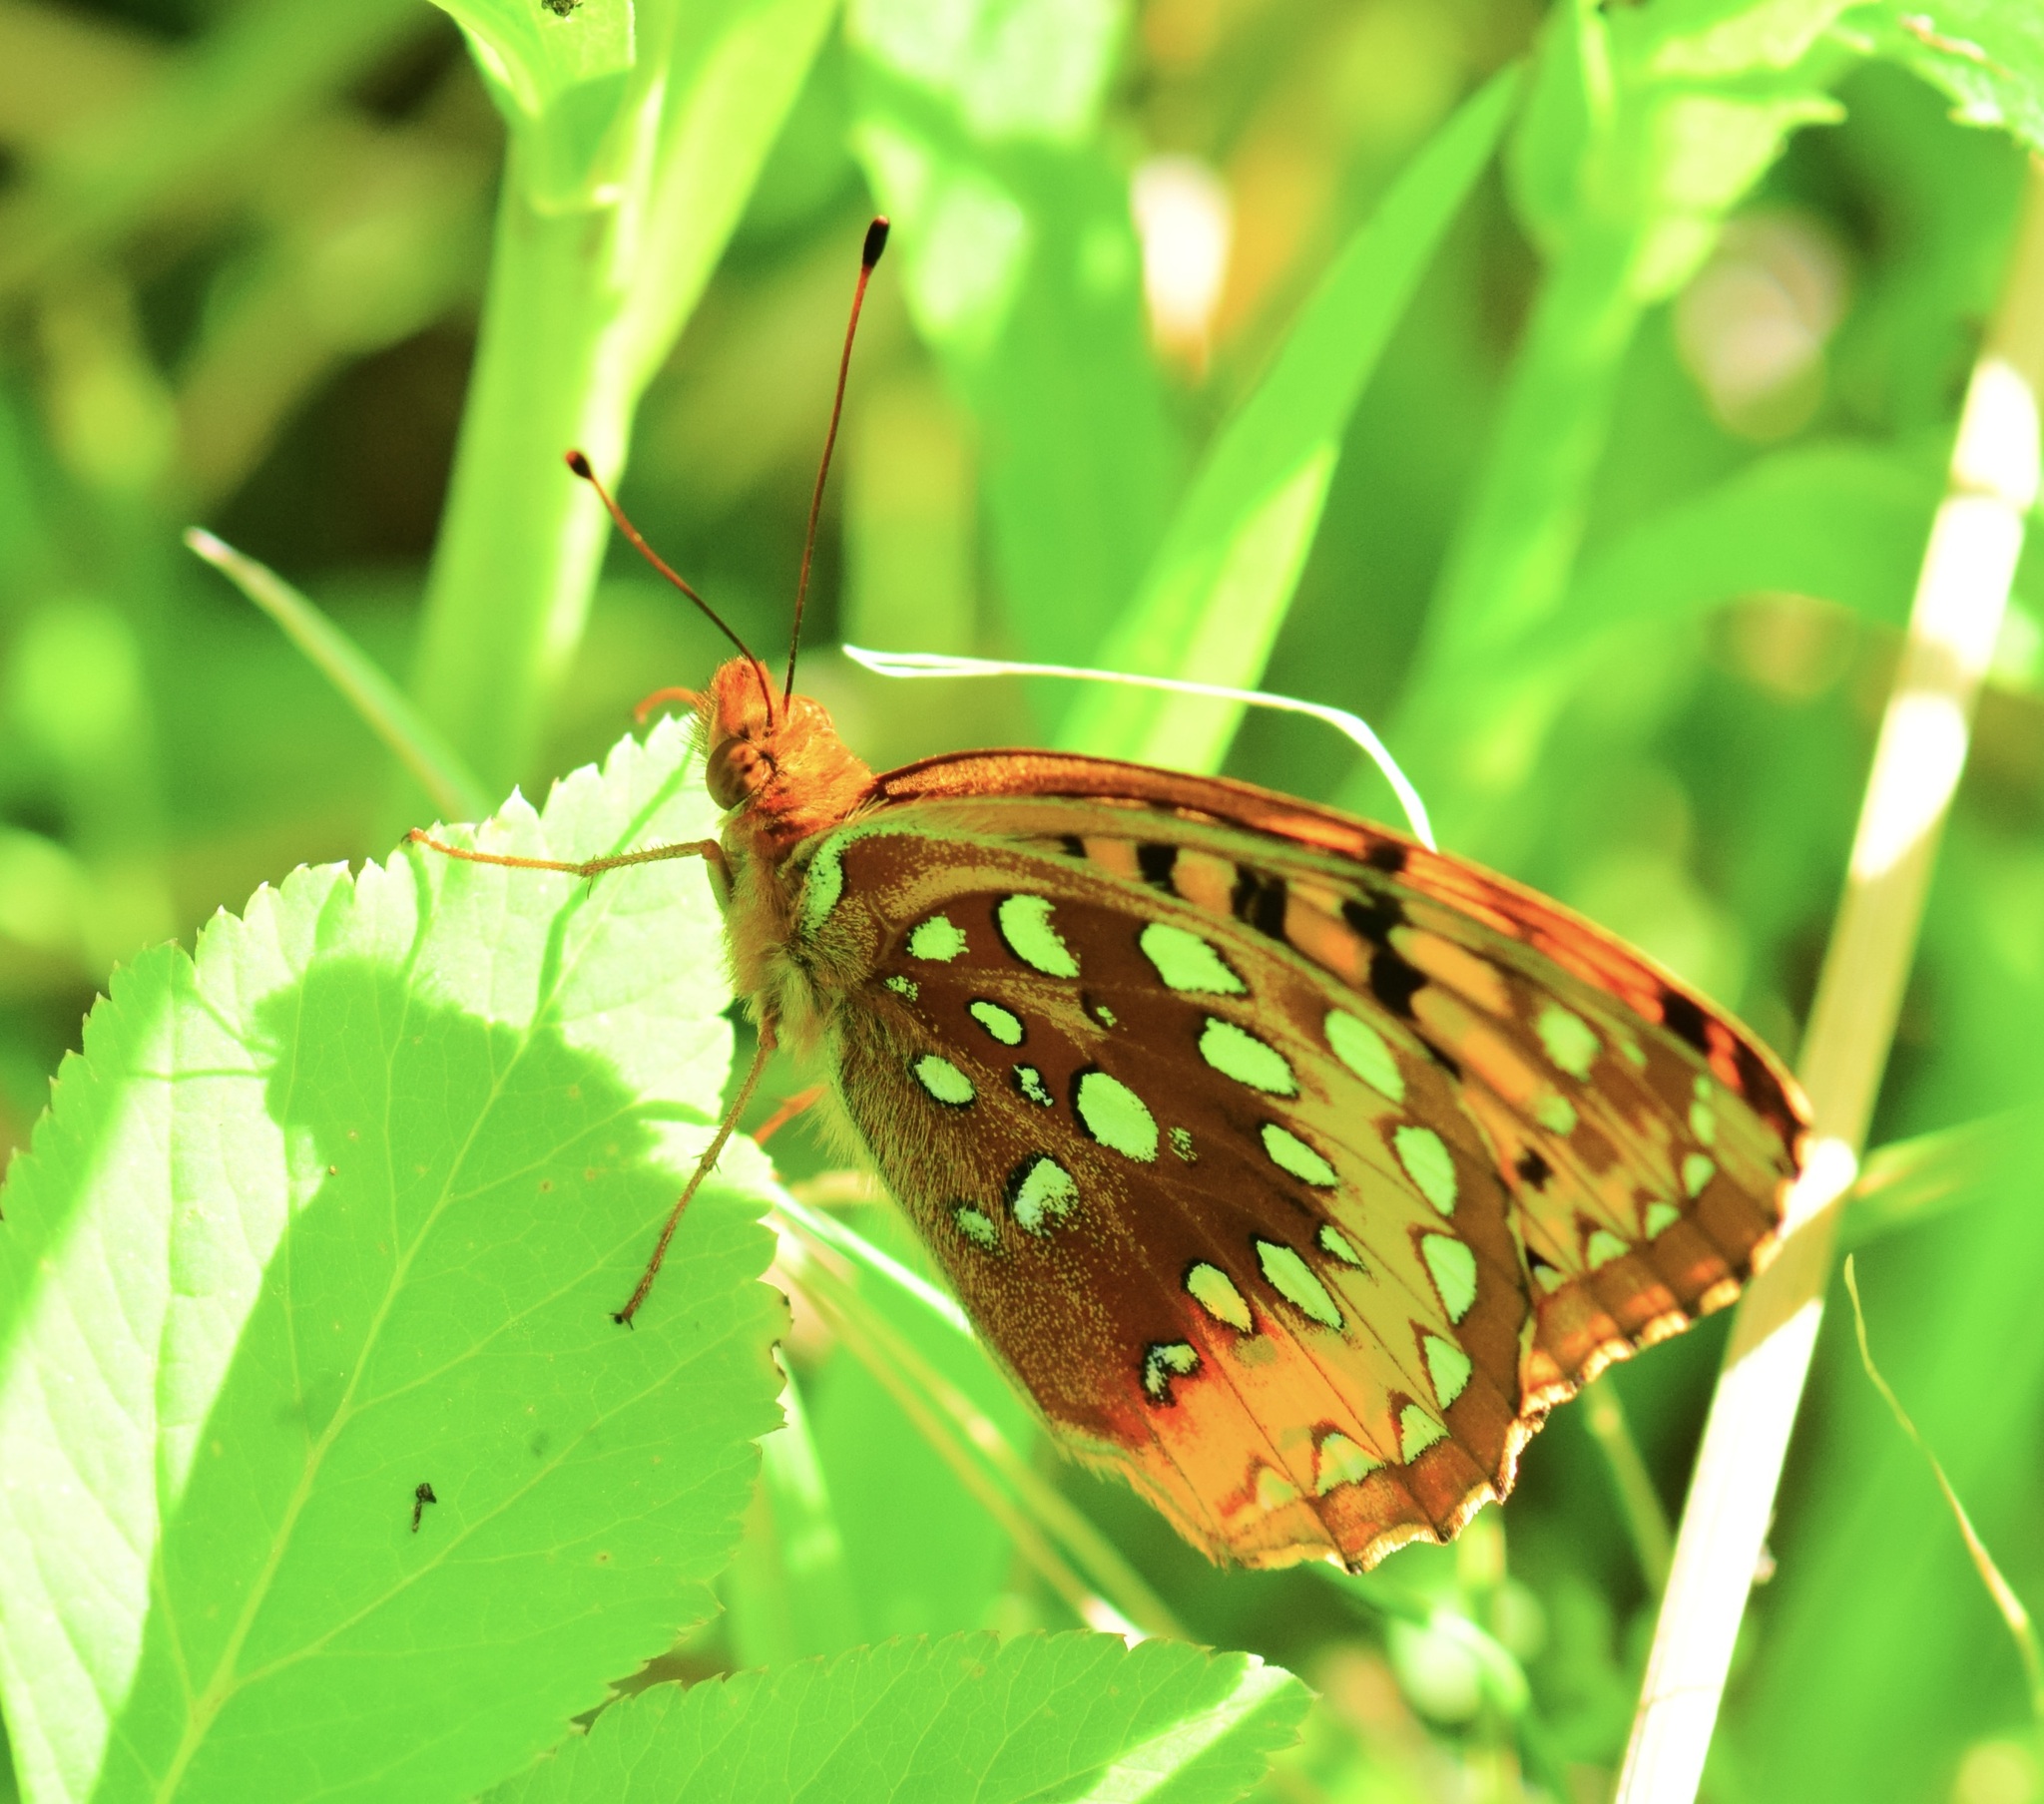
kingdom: Animalia
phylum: Arthropoda
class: Insecta
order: Lepidoptera
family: Nymphalidae
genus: Speyeria
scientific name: Speyeria cybele
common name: Great spangled fritillary
